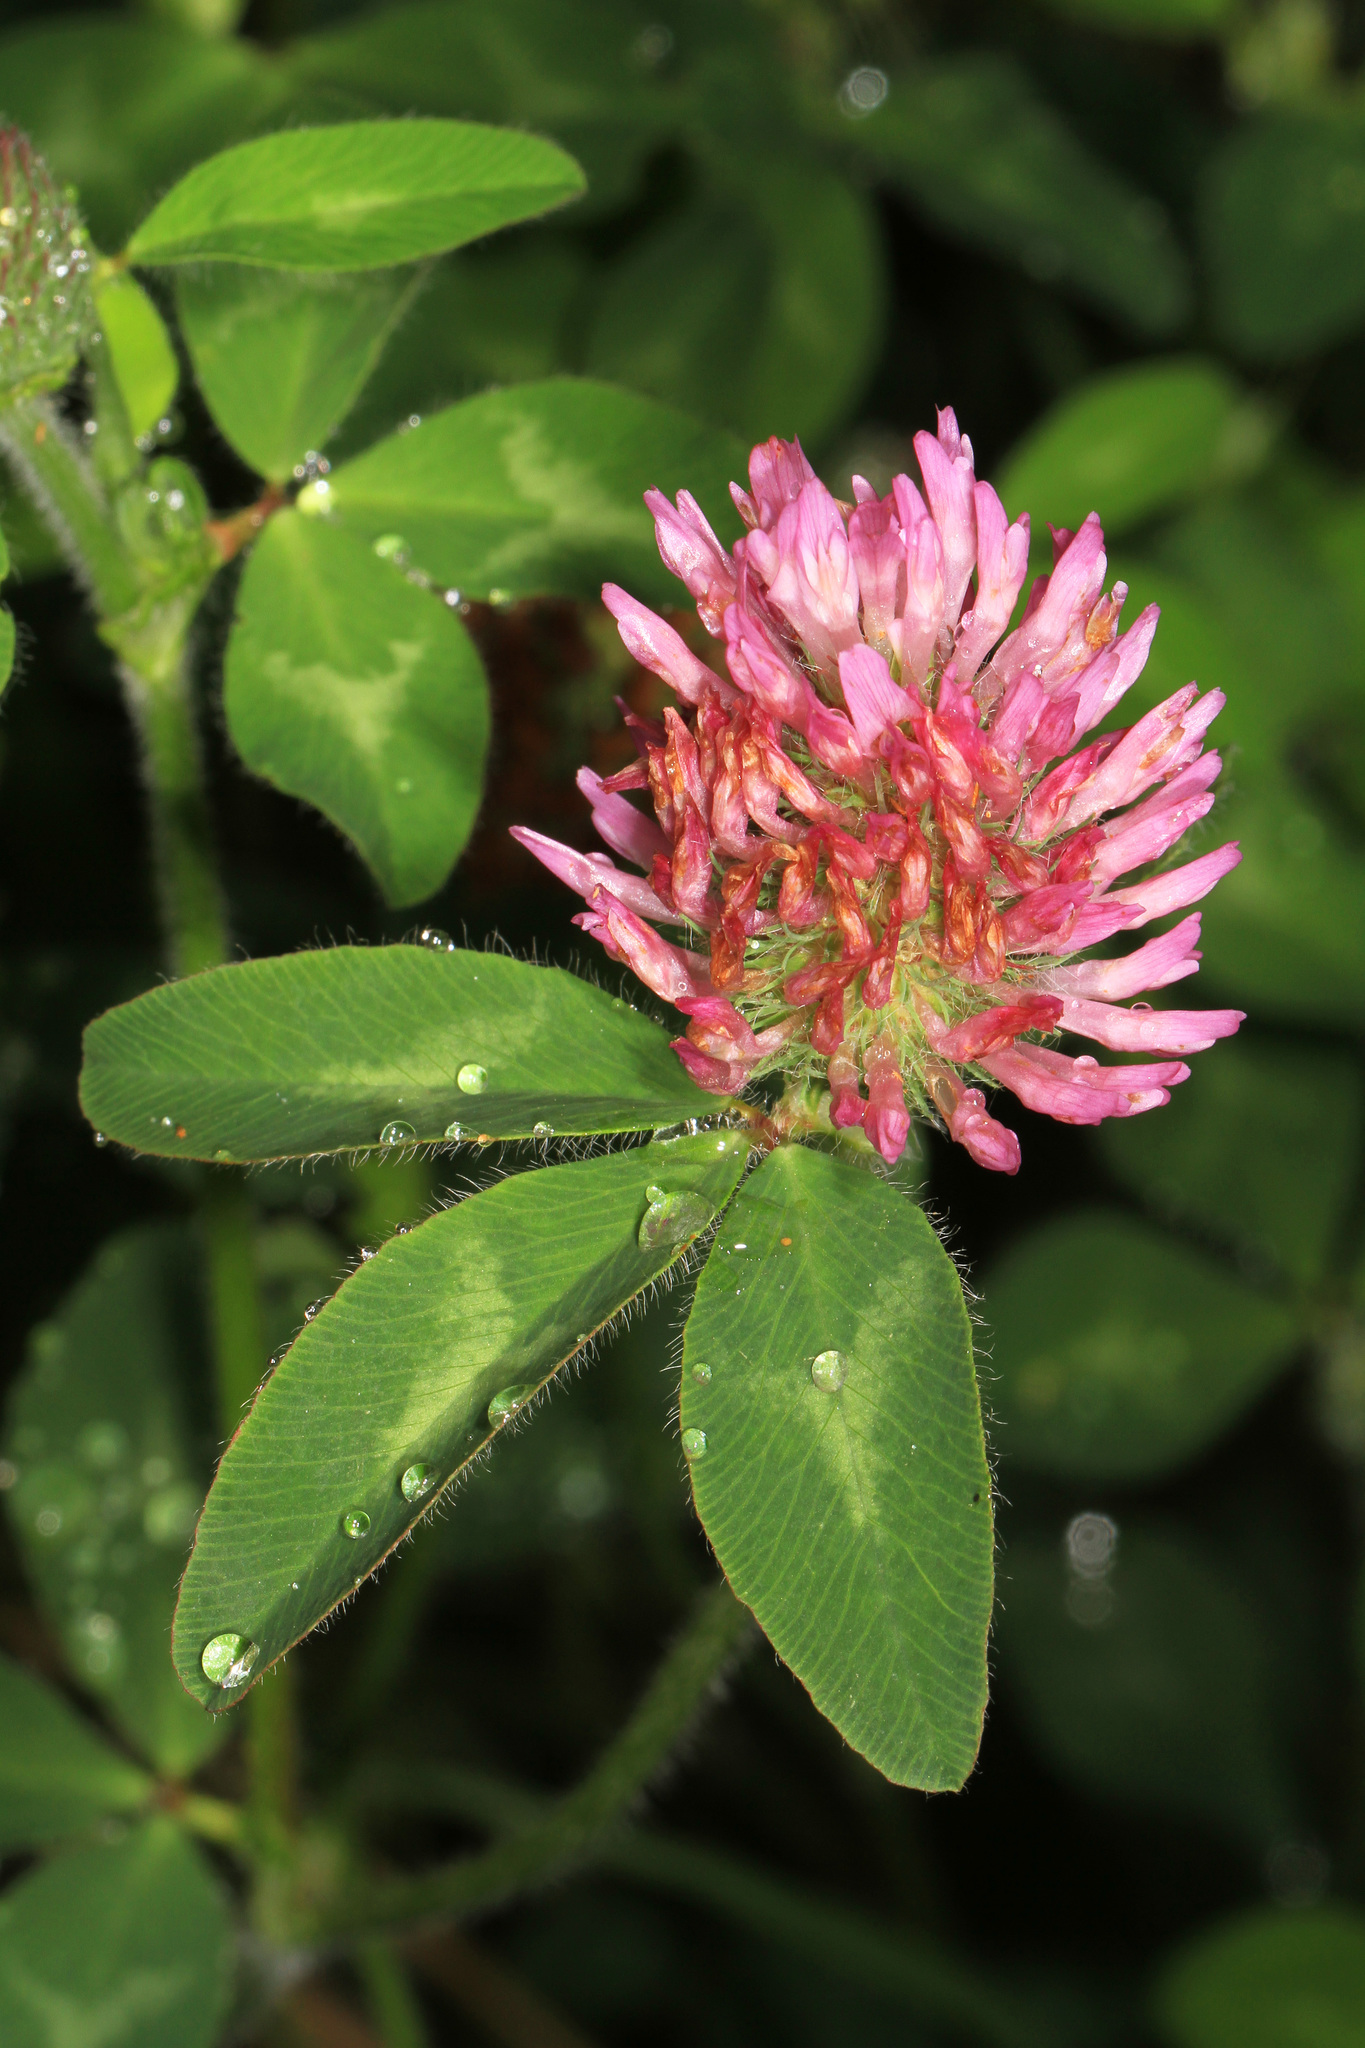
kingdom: Plantae
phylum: Tracheophyta
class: Magnoliopsida
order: Fabales
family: Fabaceae
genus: Trifolium
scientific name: Trifolium pratense
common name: Red clover
